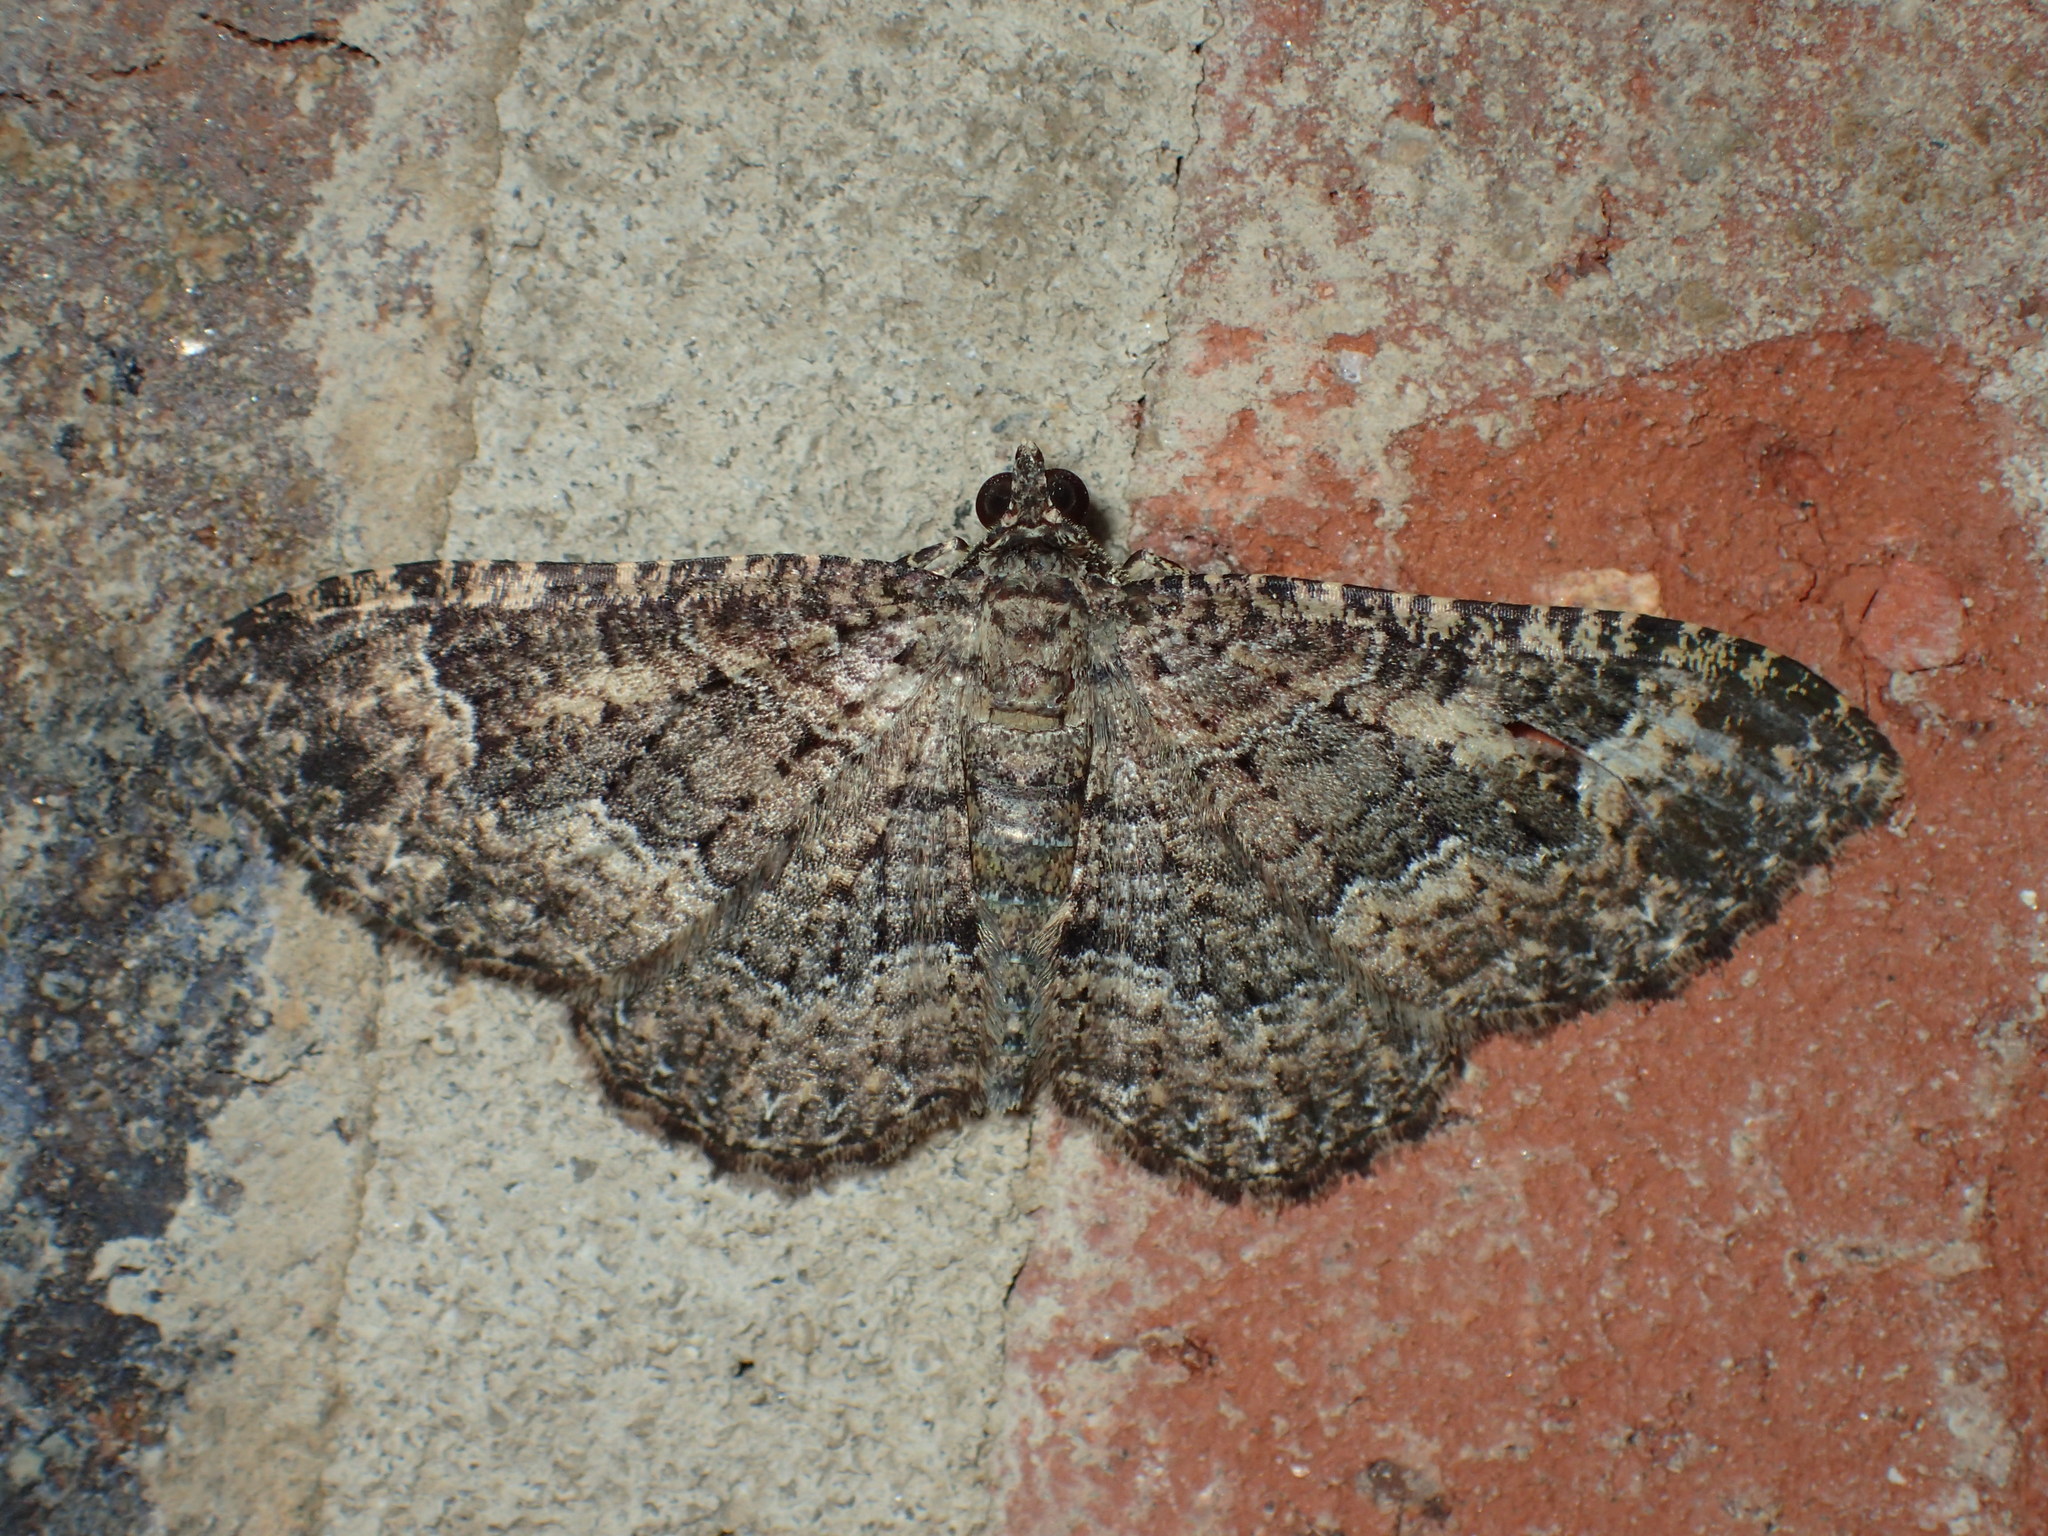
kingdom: Animalia
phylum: Arthropoda
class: Insecta
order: Lepidoptera
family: Geometridae
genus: Disclisioprocta
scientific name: Disclisioprocta stellata
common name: Somber carpet
